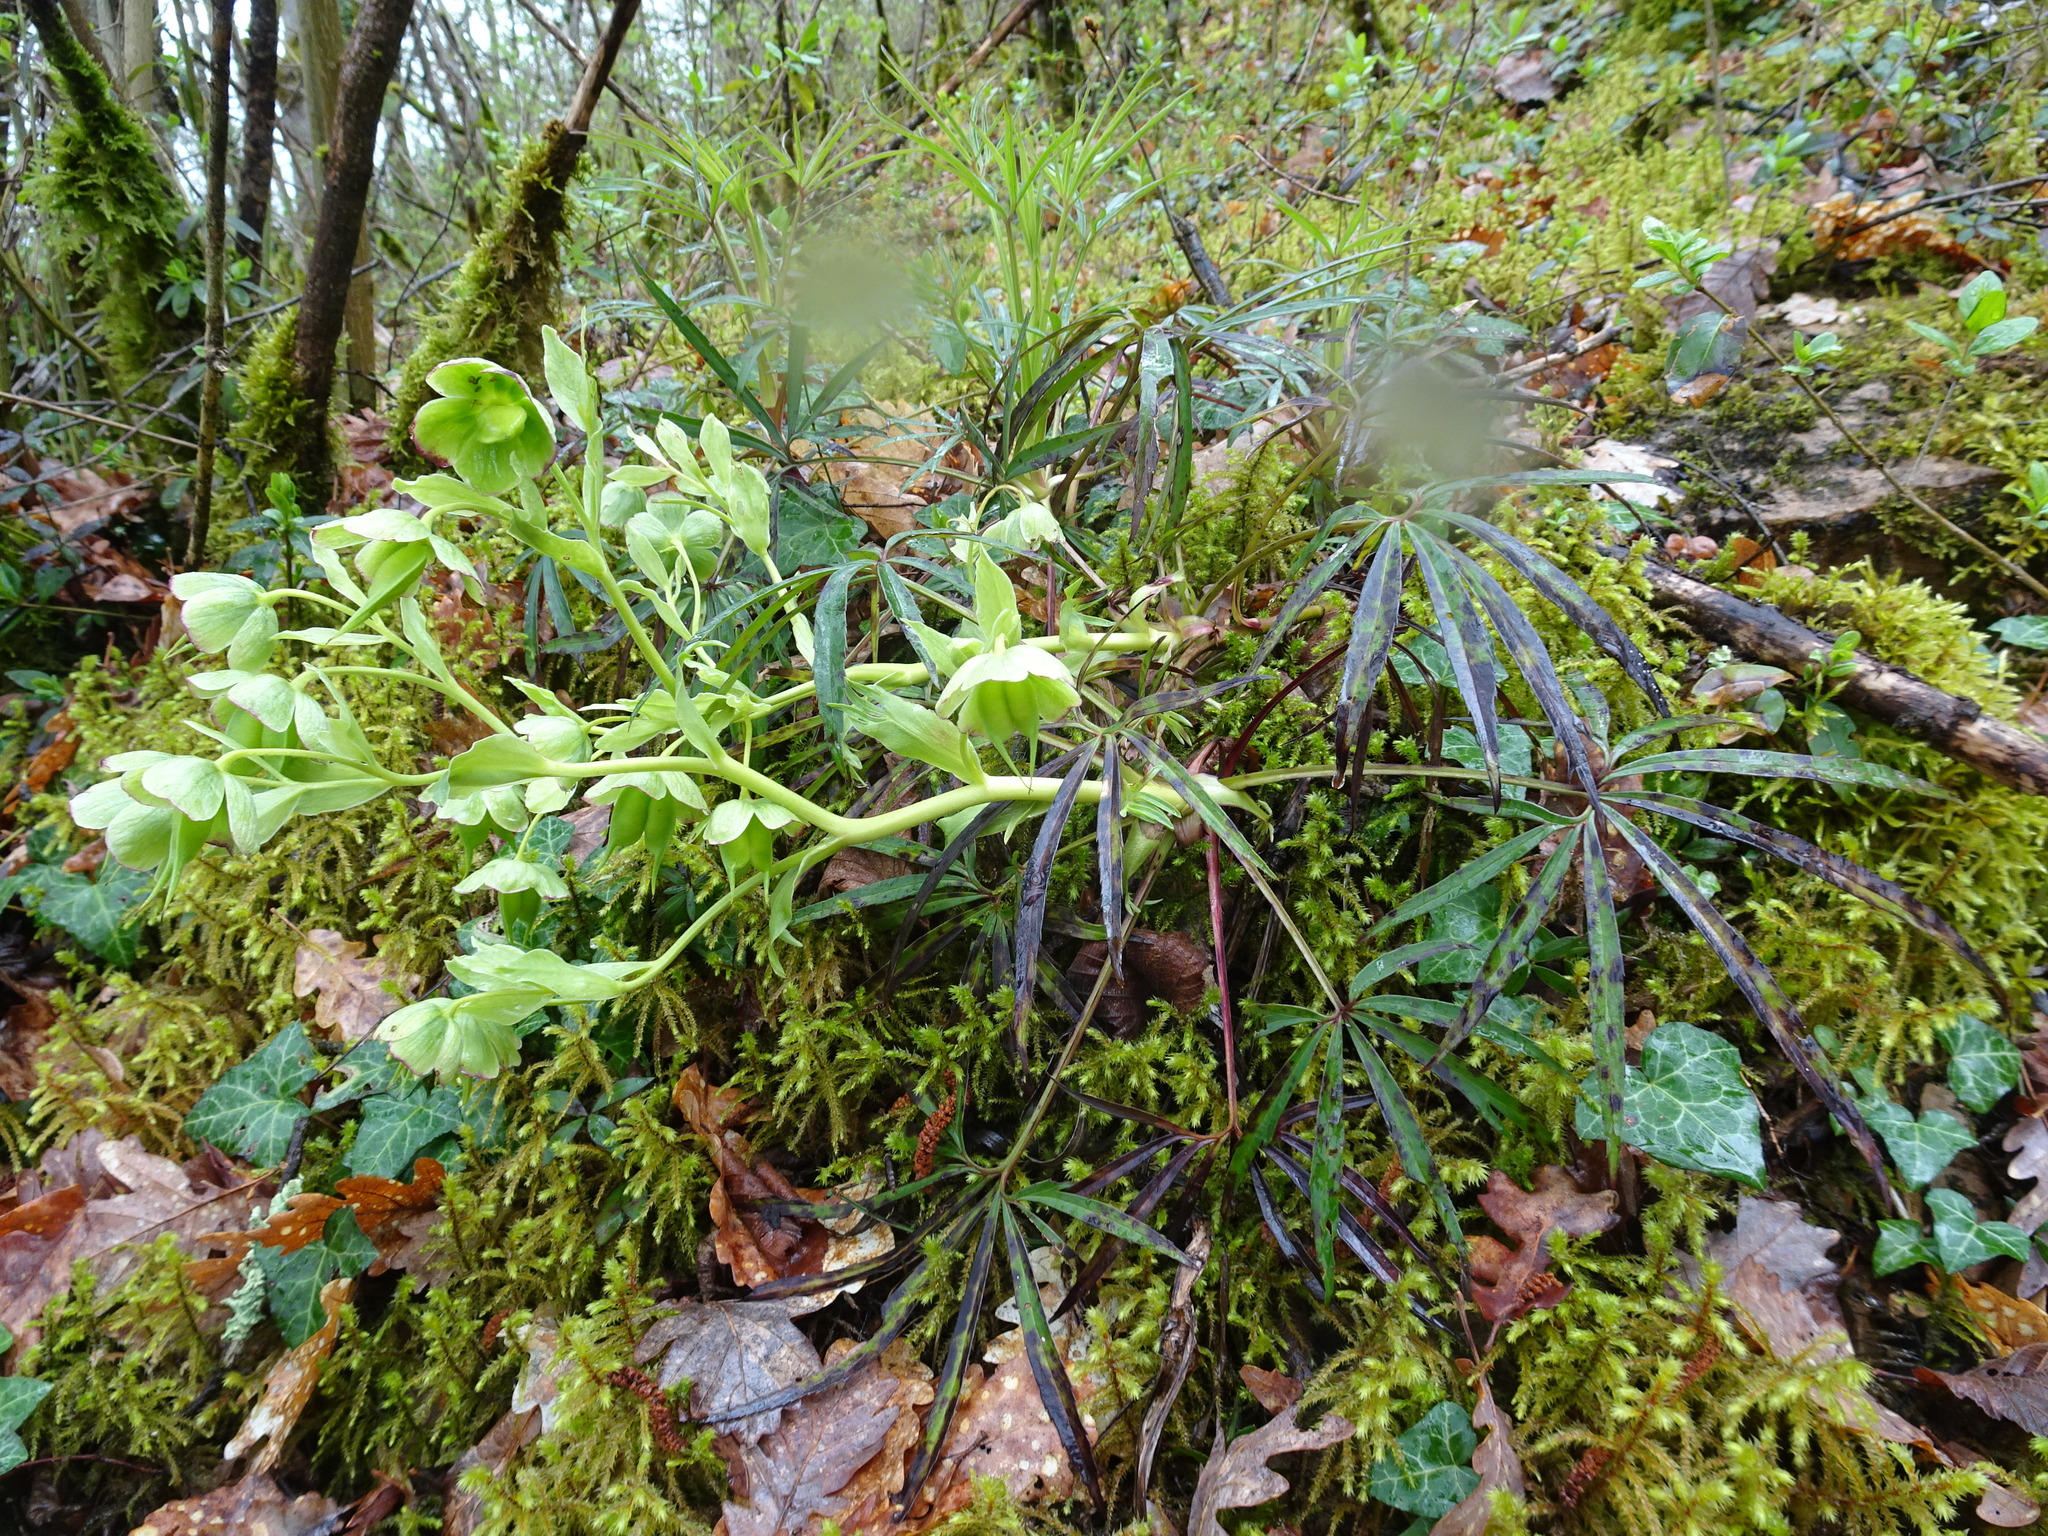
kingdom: Plantae
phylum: Tracheophyta
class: Magnoliopsida
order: Ranunculales
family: Ranunculaceae
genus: Helleborus
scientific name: Helleborus foetidus
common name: Stinking hellebore
